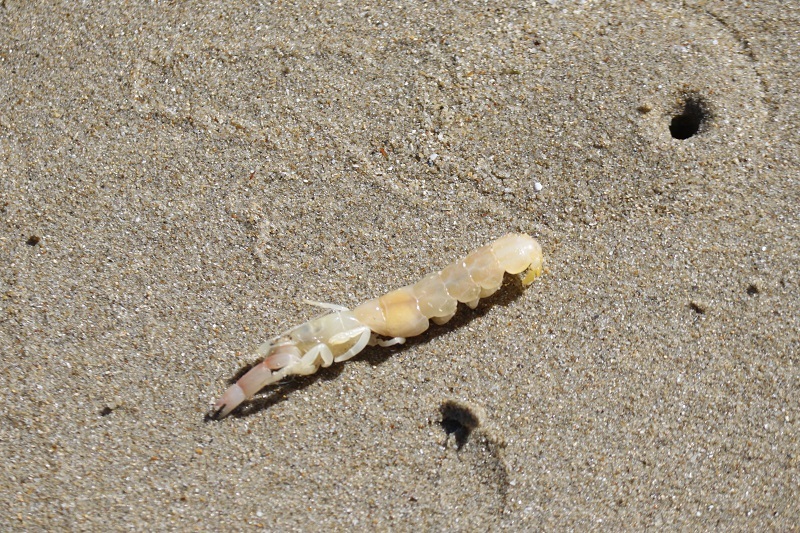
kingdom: Animalia
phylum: Arthropoda
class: Malacostraca
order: Decapoda
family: Callichiridae
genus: Kraussillichirus
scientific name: Kraussillichirus kraussi
